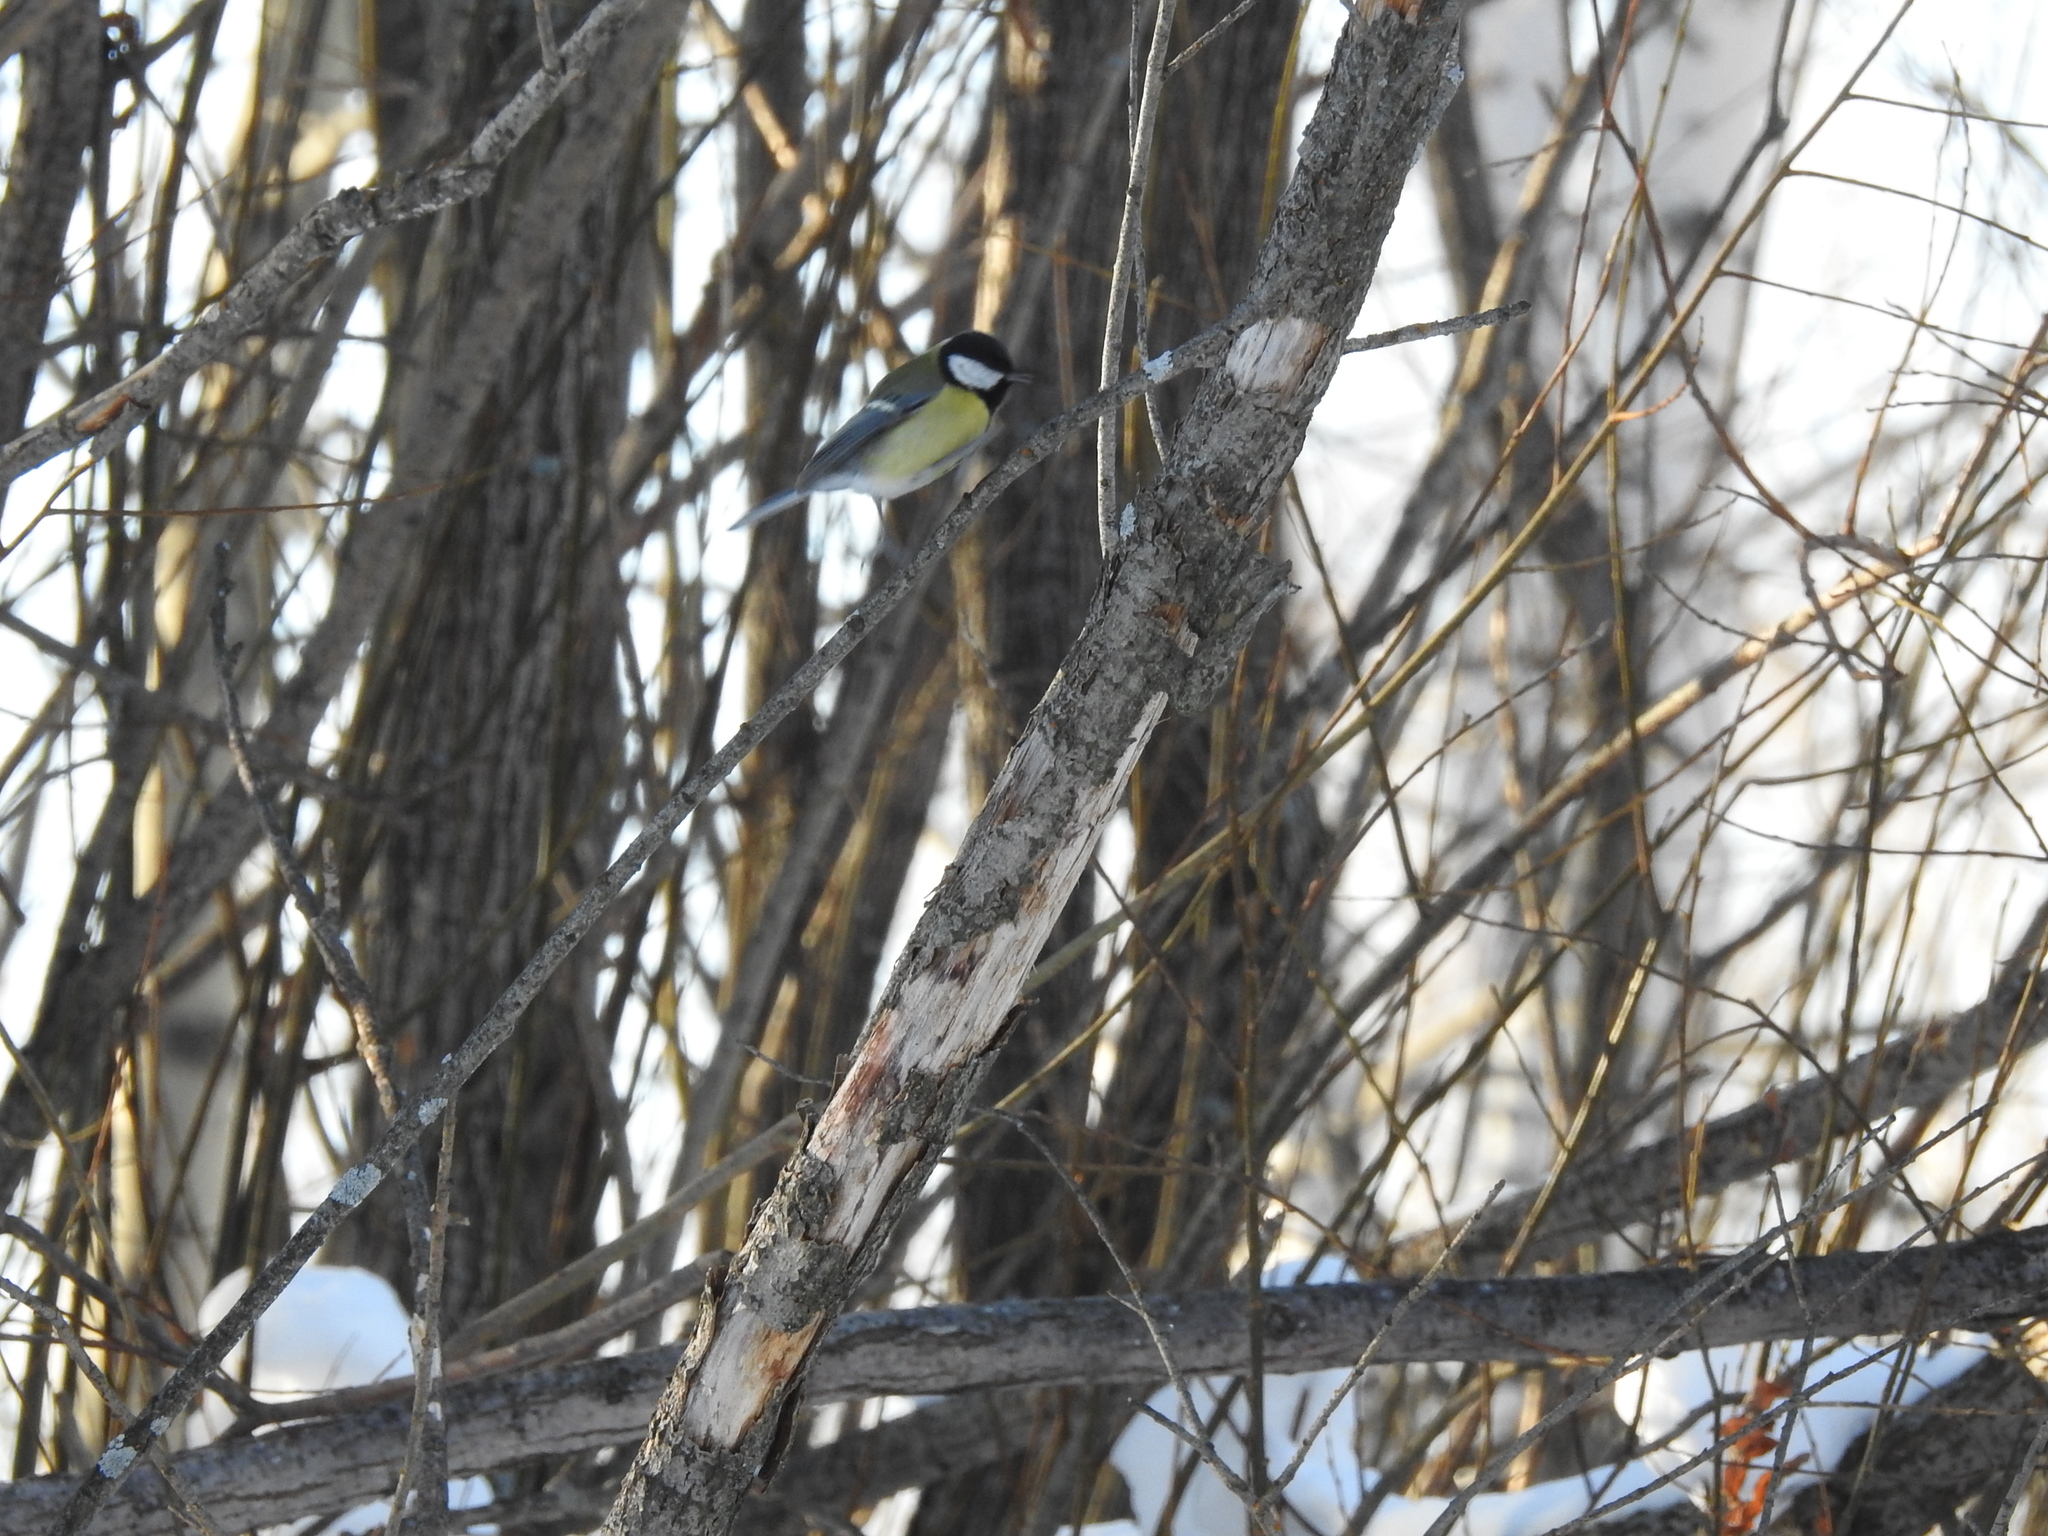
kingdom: Animalia
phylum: Chordata
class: Aves
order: Passeriformes
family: Paridae
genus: Parus
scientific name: Parus major
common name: Great tit
